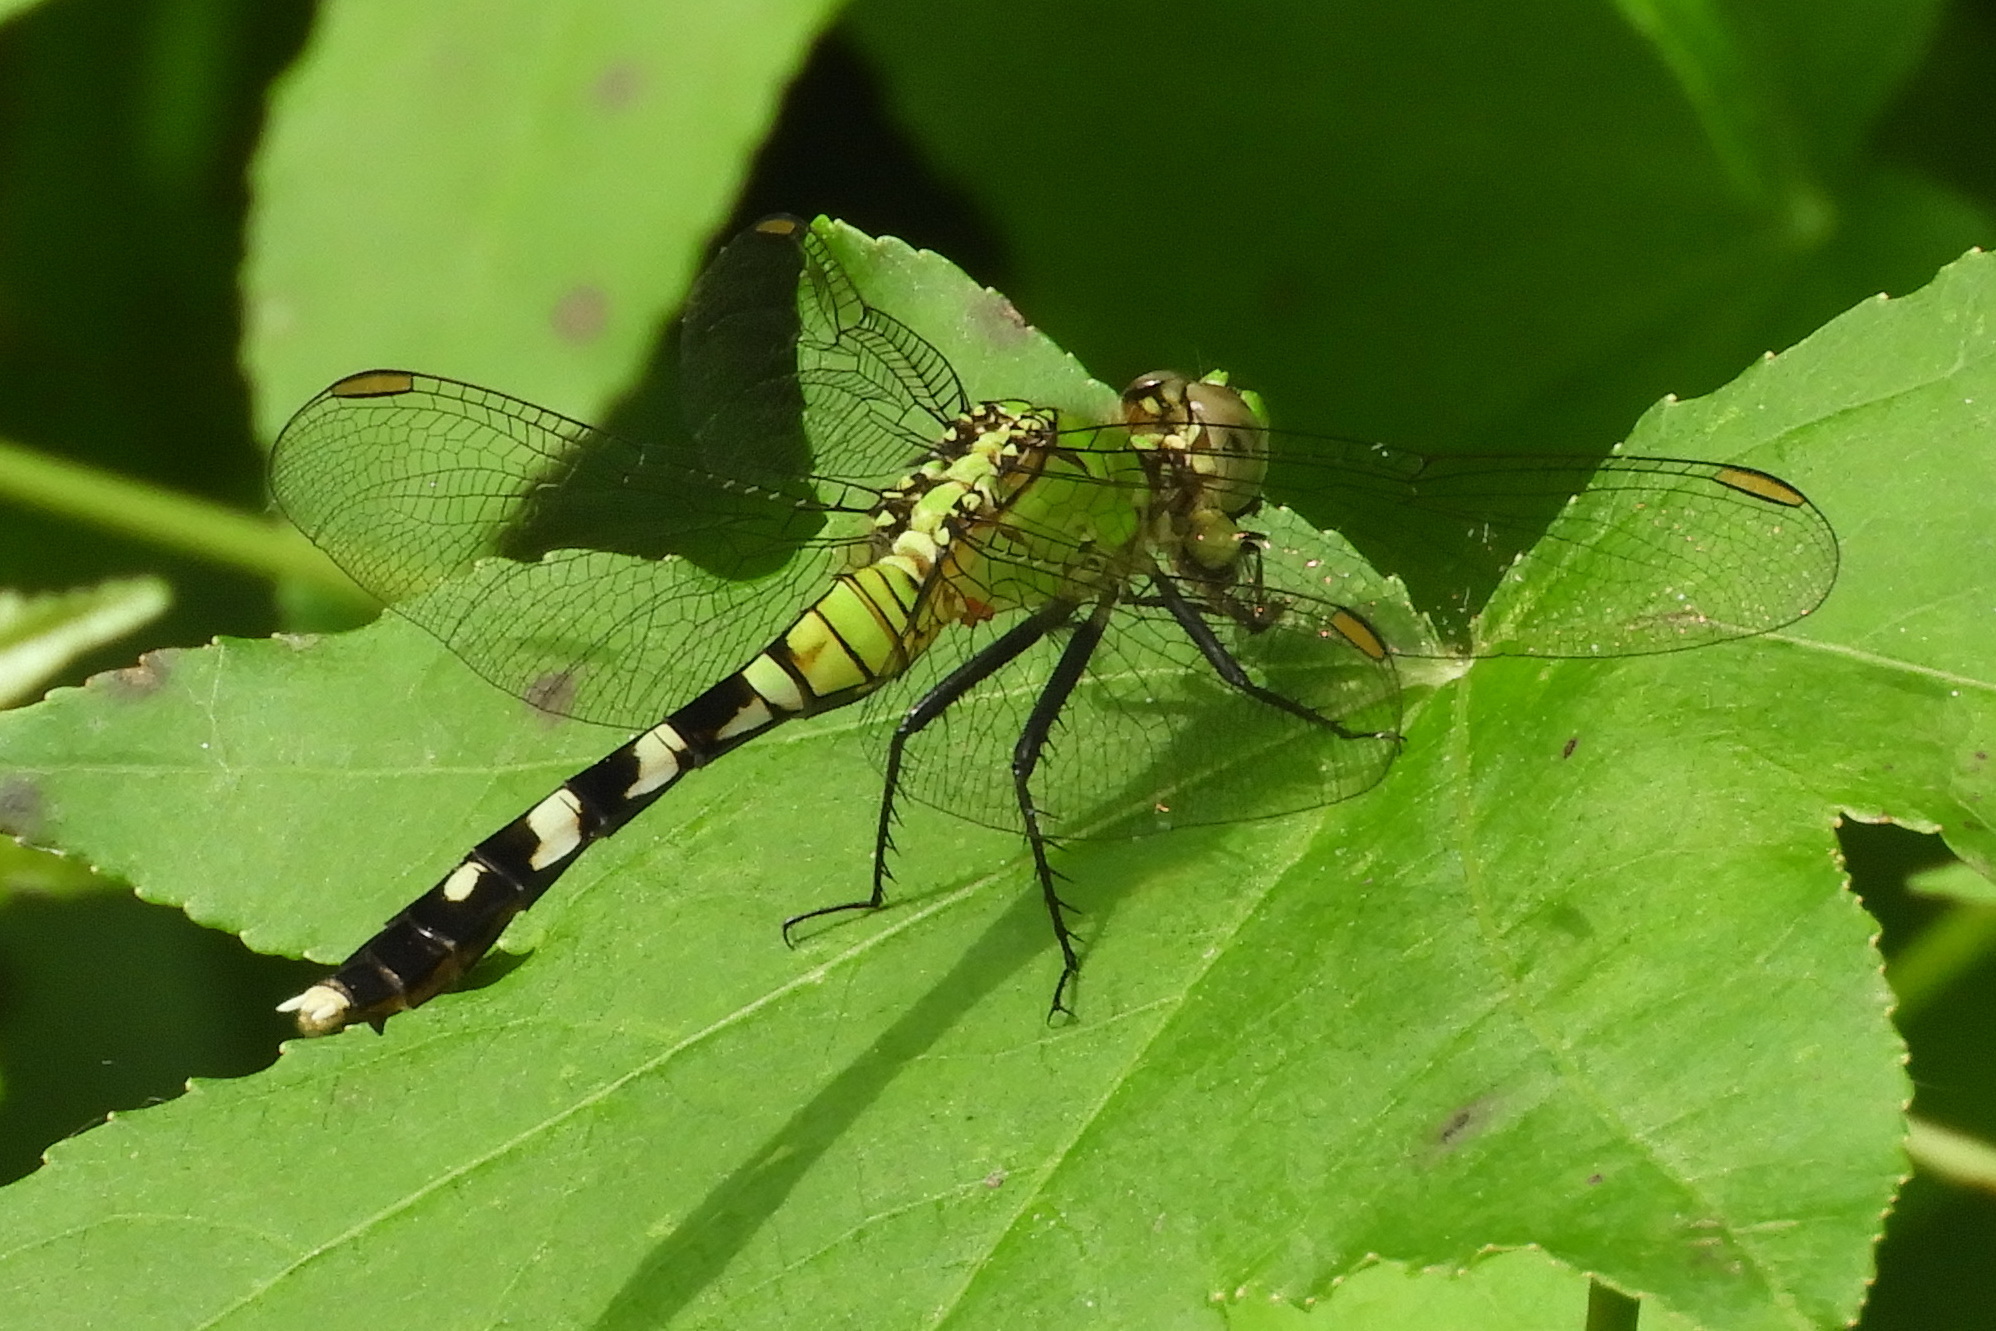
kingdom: Animalia
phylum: Arthropoda
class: Insecta
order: Odonata
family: Libellulidae
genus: Erythemis
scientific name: Erythemis simplicicollis
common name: Eastern pondhawk
